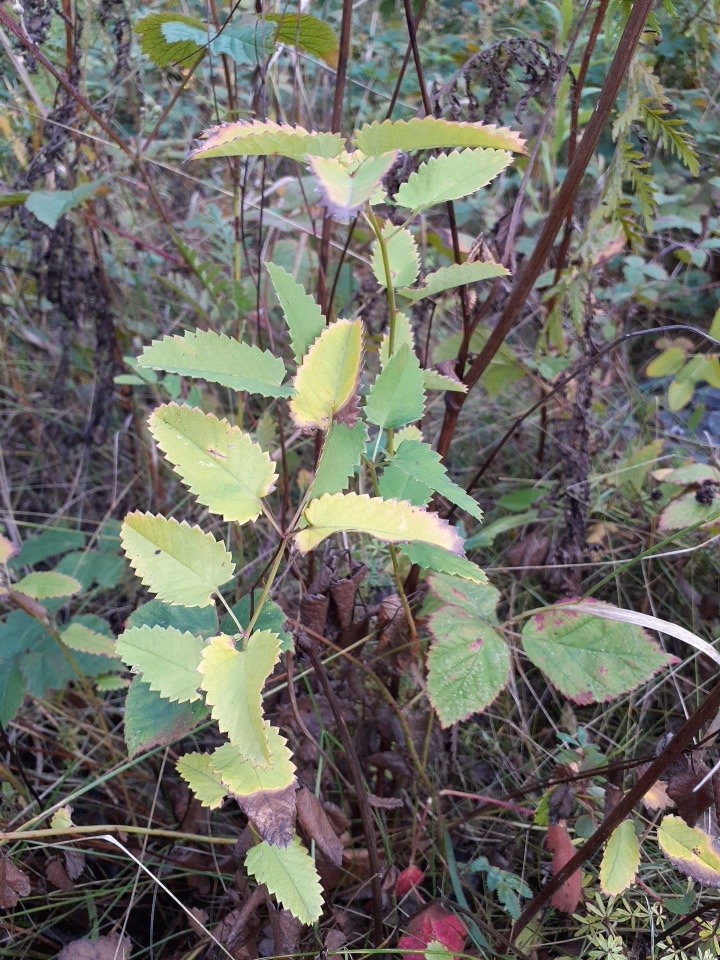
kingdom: Plantae
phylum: Tracheophyta
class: Magnoliopsida
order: Rosales
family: Rosaceae
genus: Sanguisorba
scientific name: Sanguisorba officinalis
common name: Great burnet
